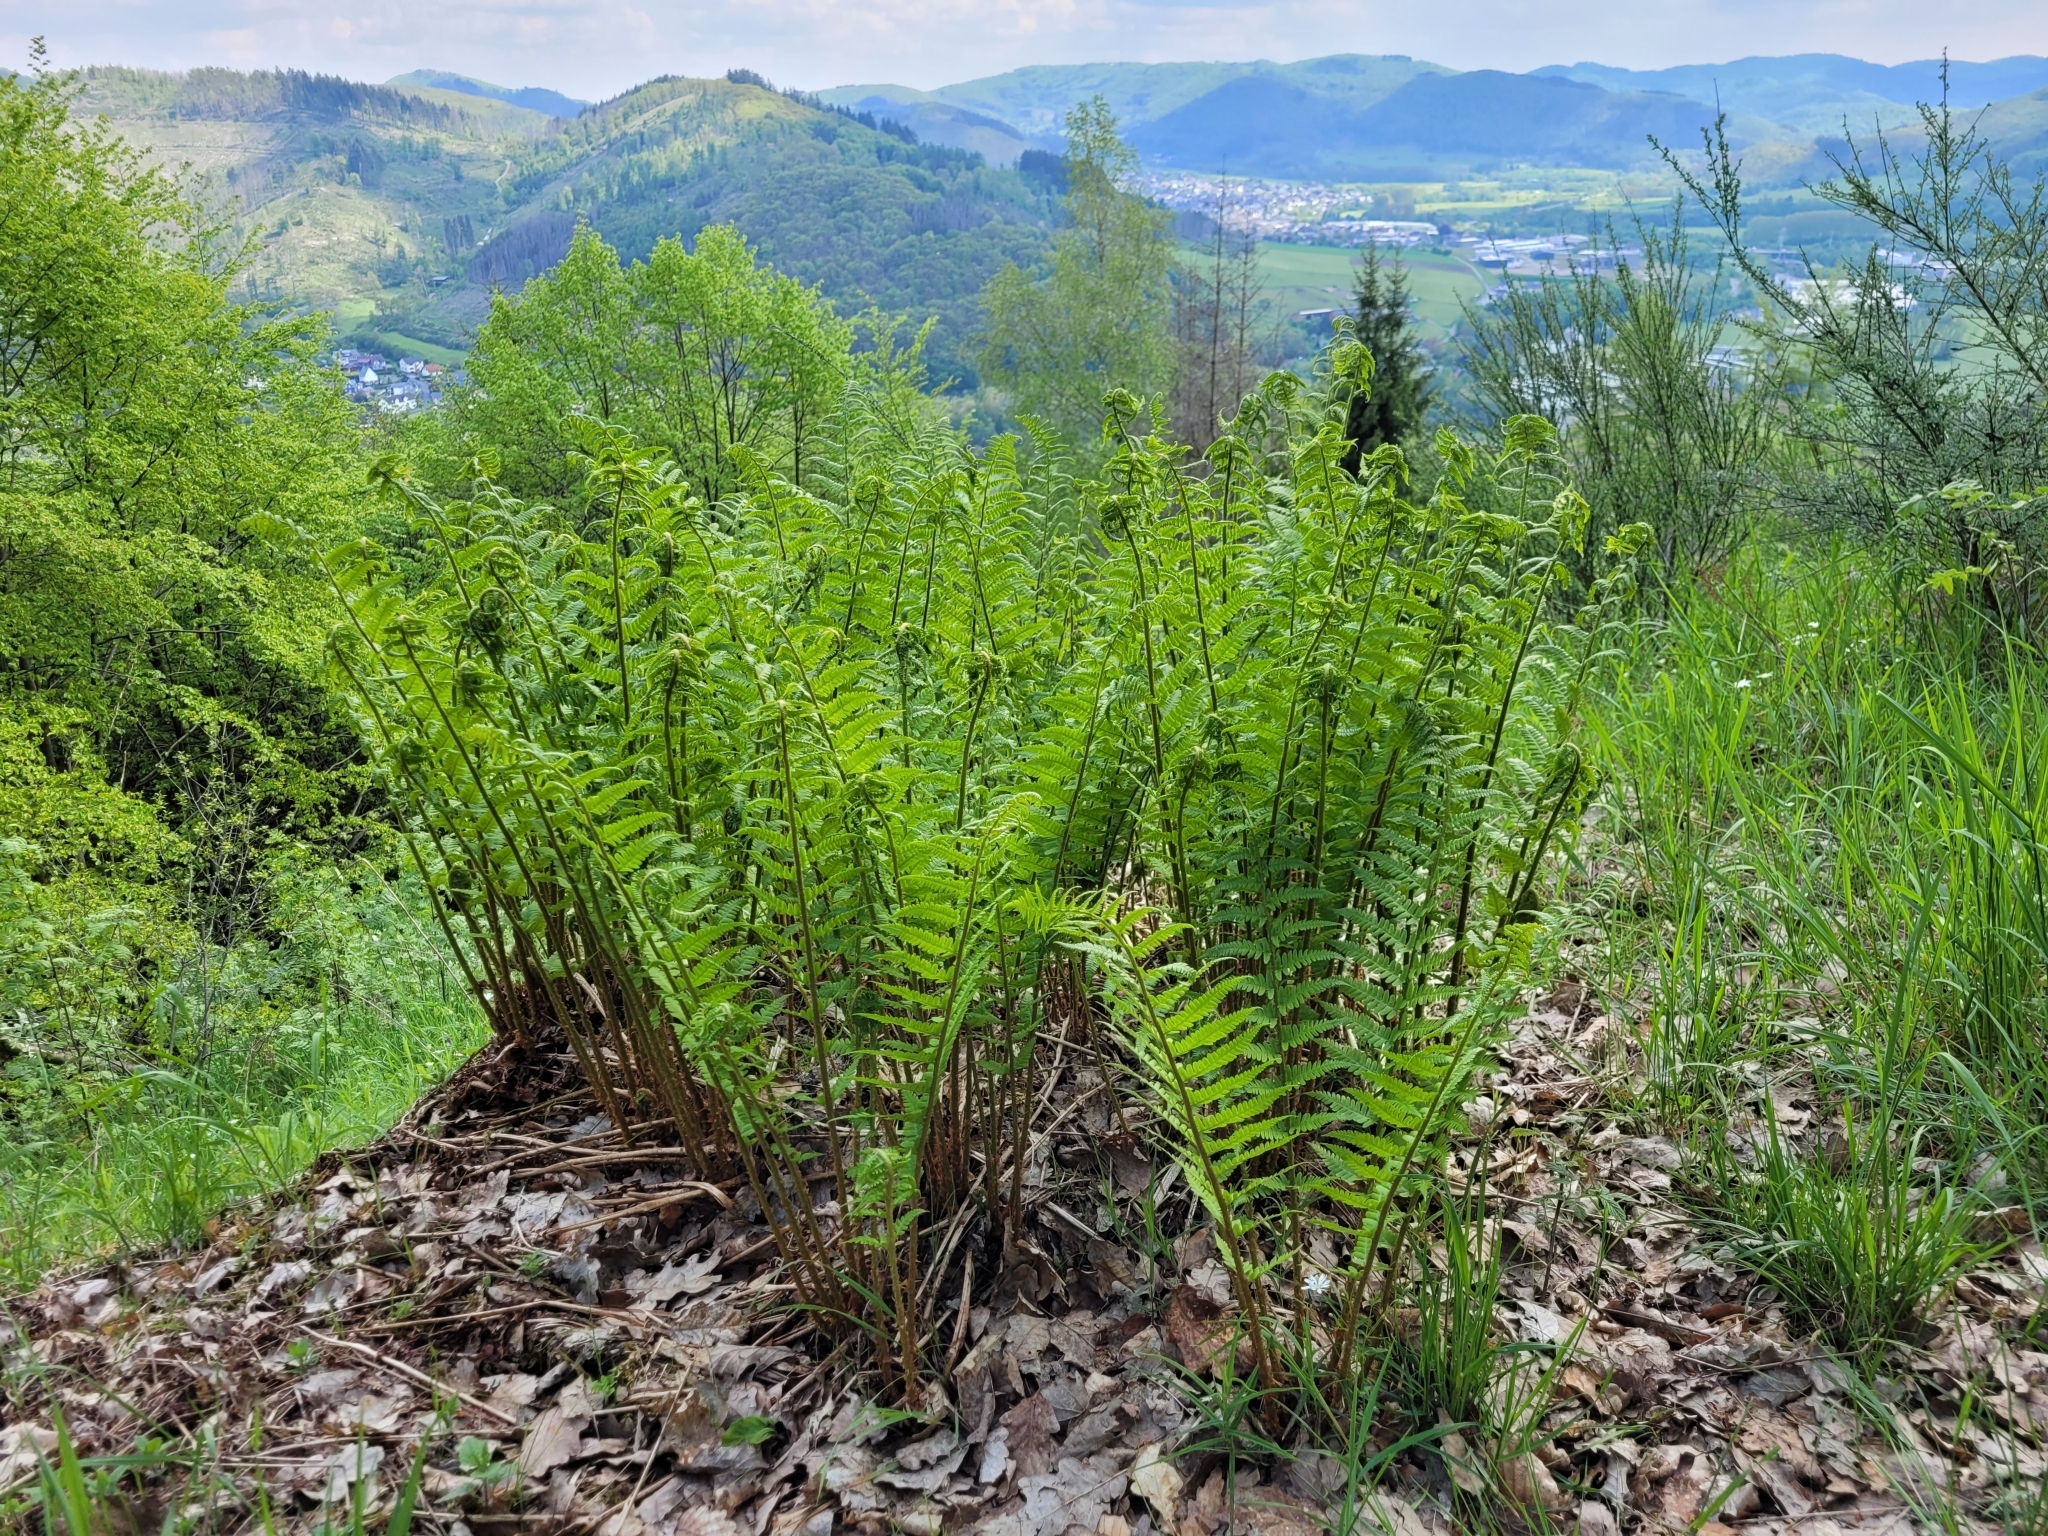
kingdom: Plantae
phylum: Tracheophyta
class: Polypodiopsida
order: Polypodiales
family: Dryopteridaceae
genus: Dryopteris
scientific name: Dryopteris filix-mas
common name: Male fern
